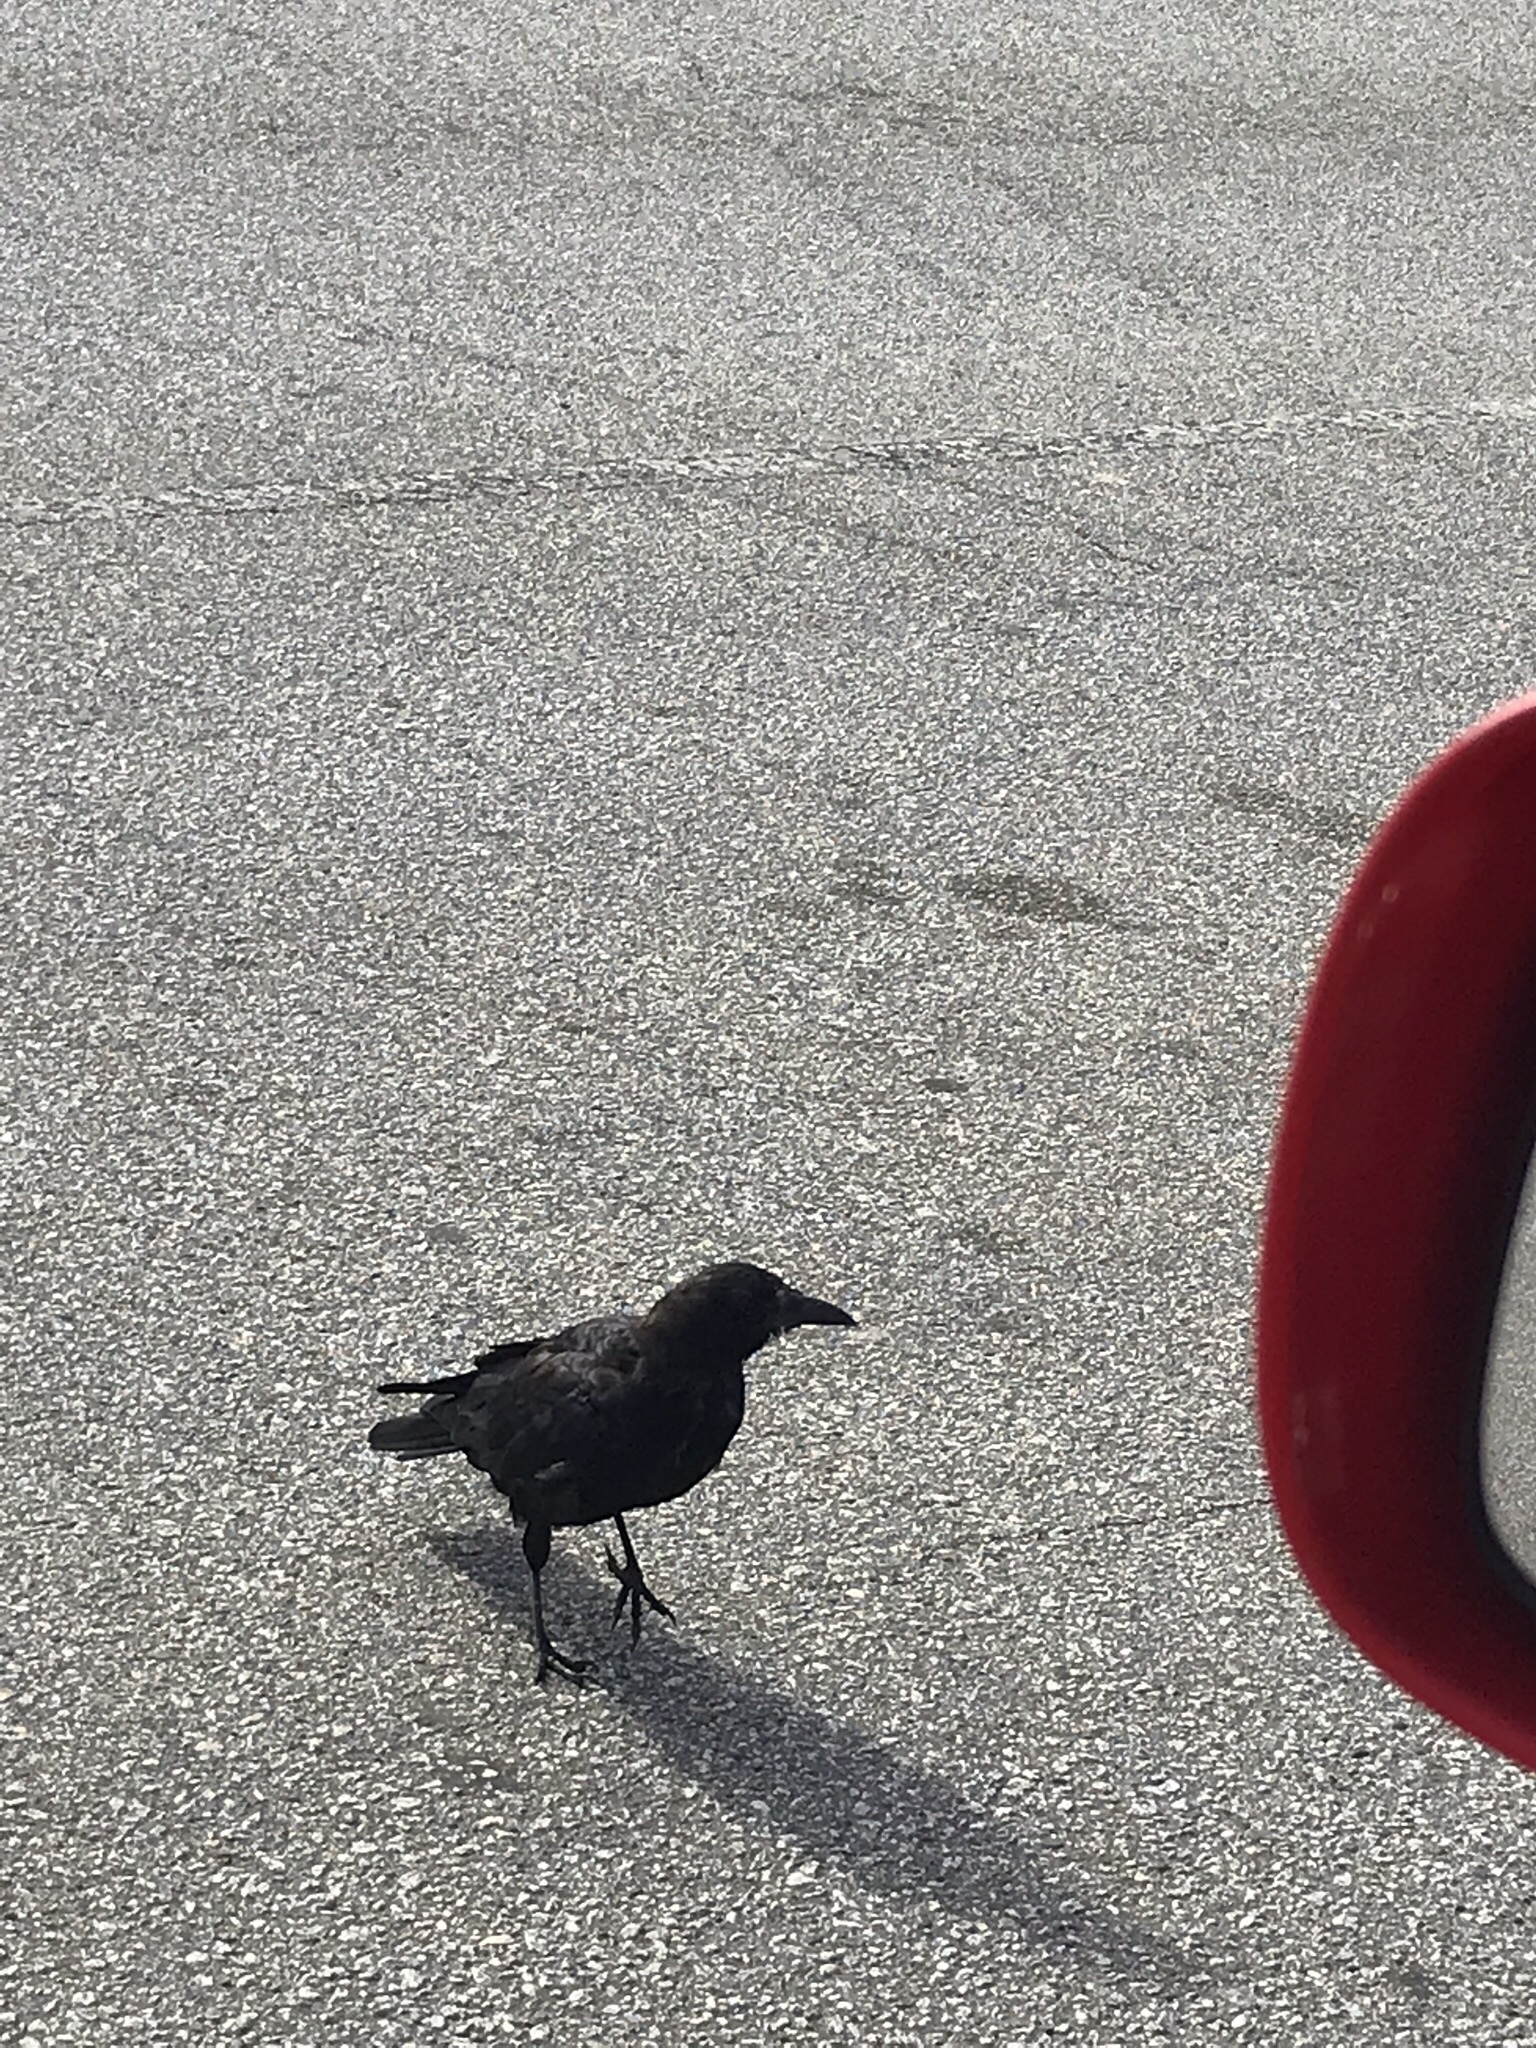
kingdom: Animalia
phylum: Chordata
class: Aves
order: Passeriformes
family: Corvidae
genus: Corvus
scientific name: Corvus brachyrhynchos
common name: American crow
